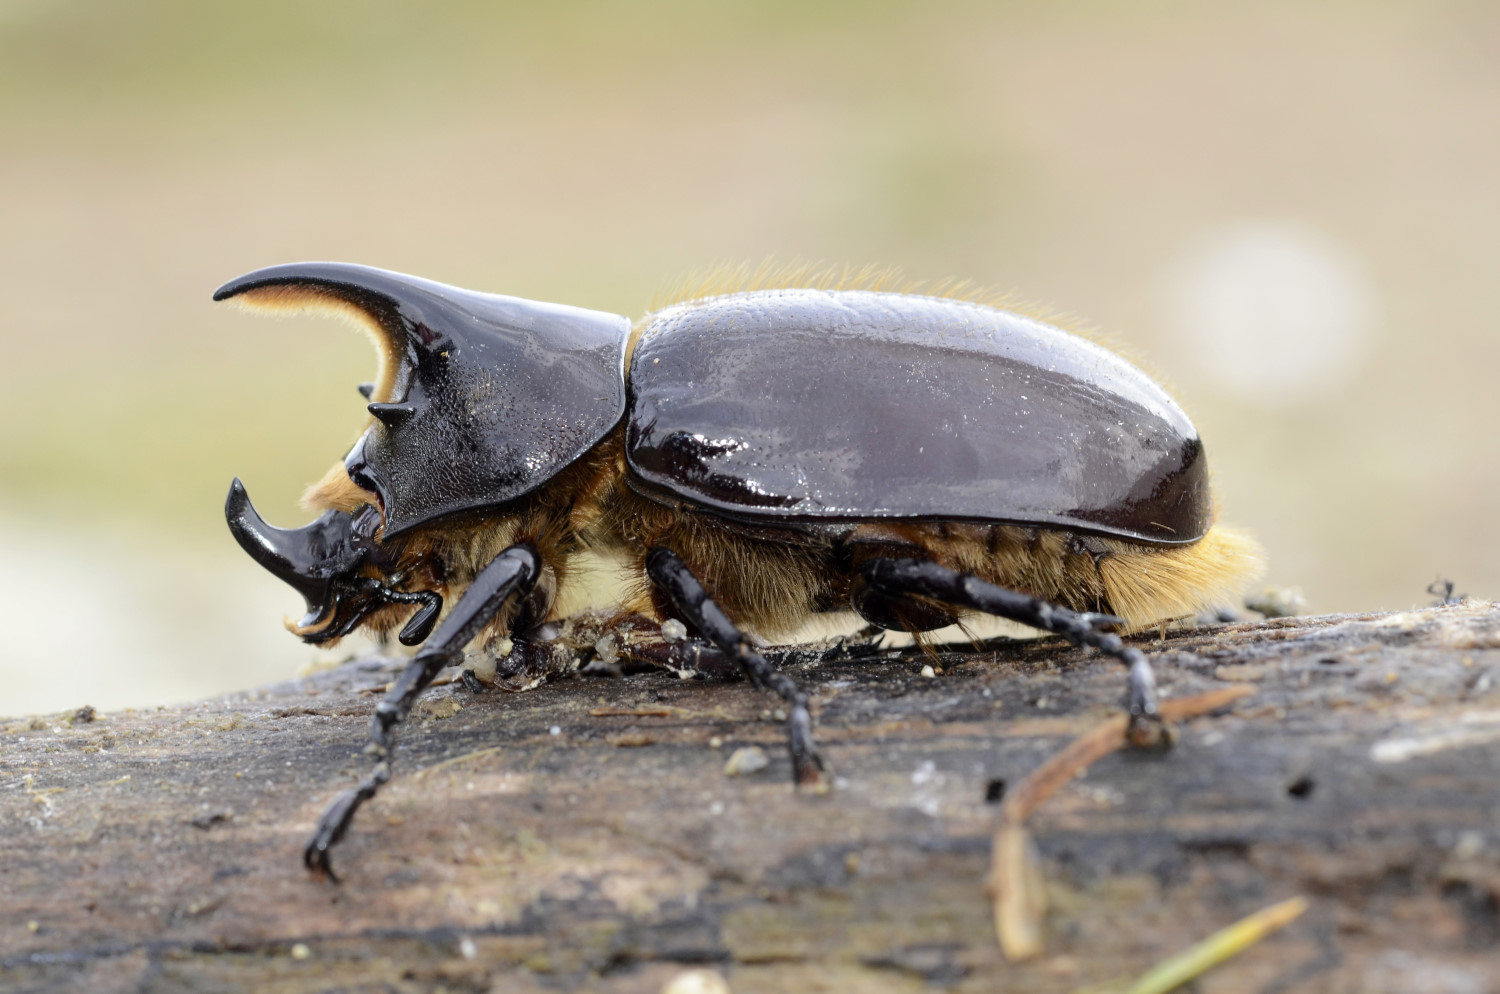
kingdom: Animalia
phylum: Arthropoda
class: Insecta
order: Coleoptera
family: Scarabaeidae
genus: Dynastes
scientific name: Dynastes neptunus
